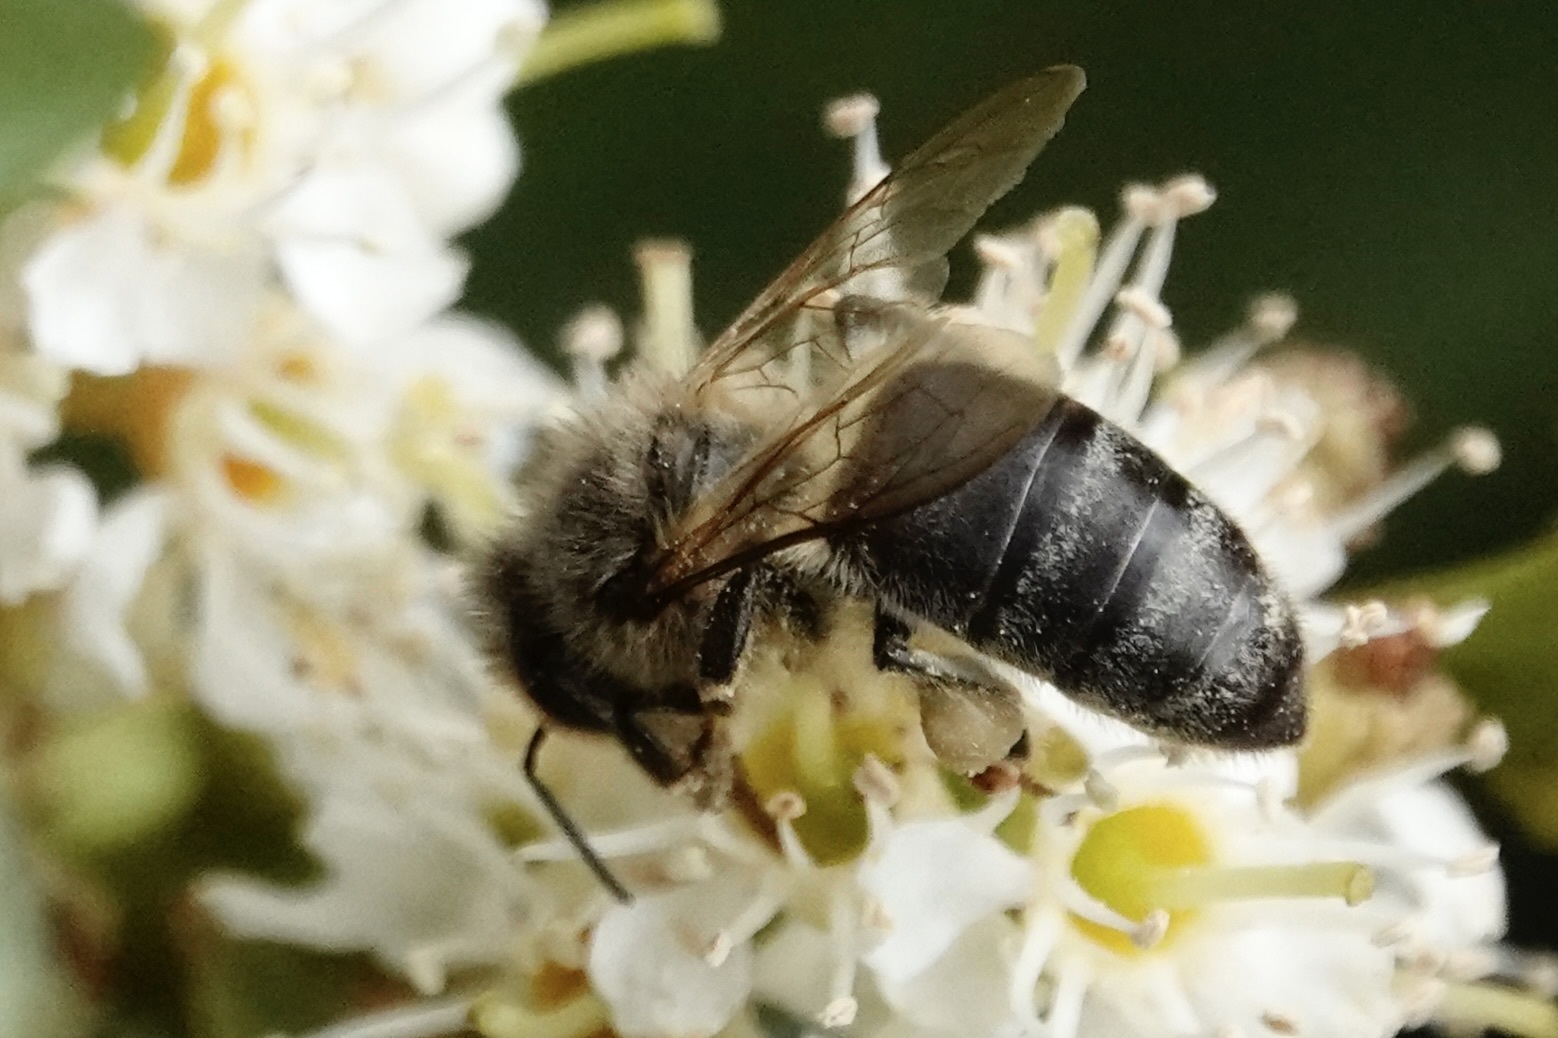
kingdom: Animalia
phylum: Arthropoda
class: Insecta
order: Hymenoptera
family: Apidae
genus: Apis
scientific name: Apis mellifera
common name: Honey bee
